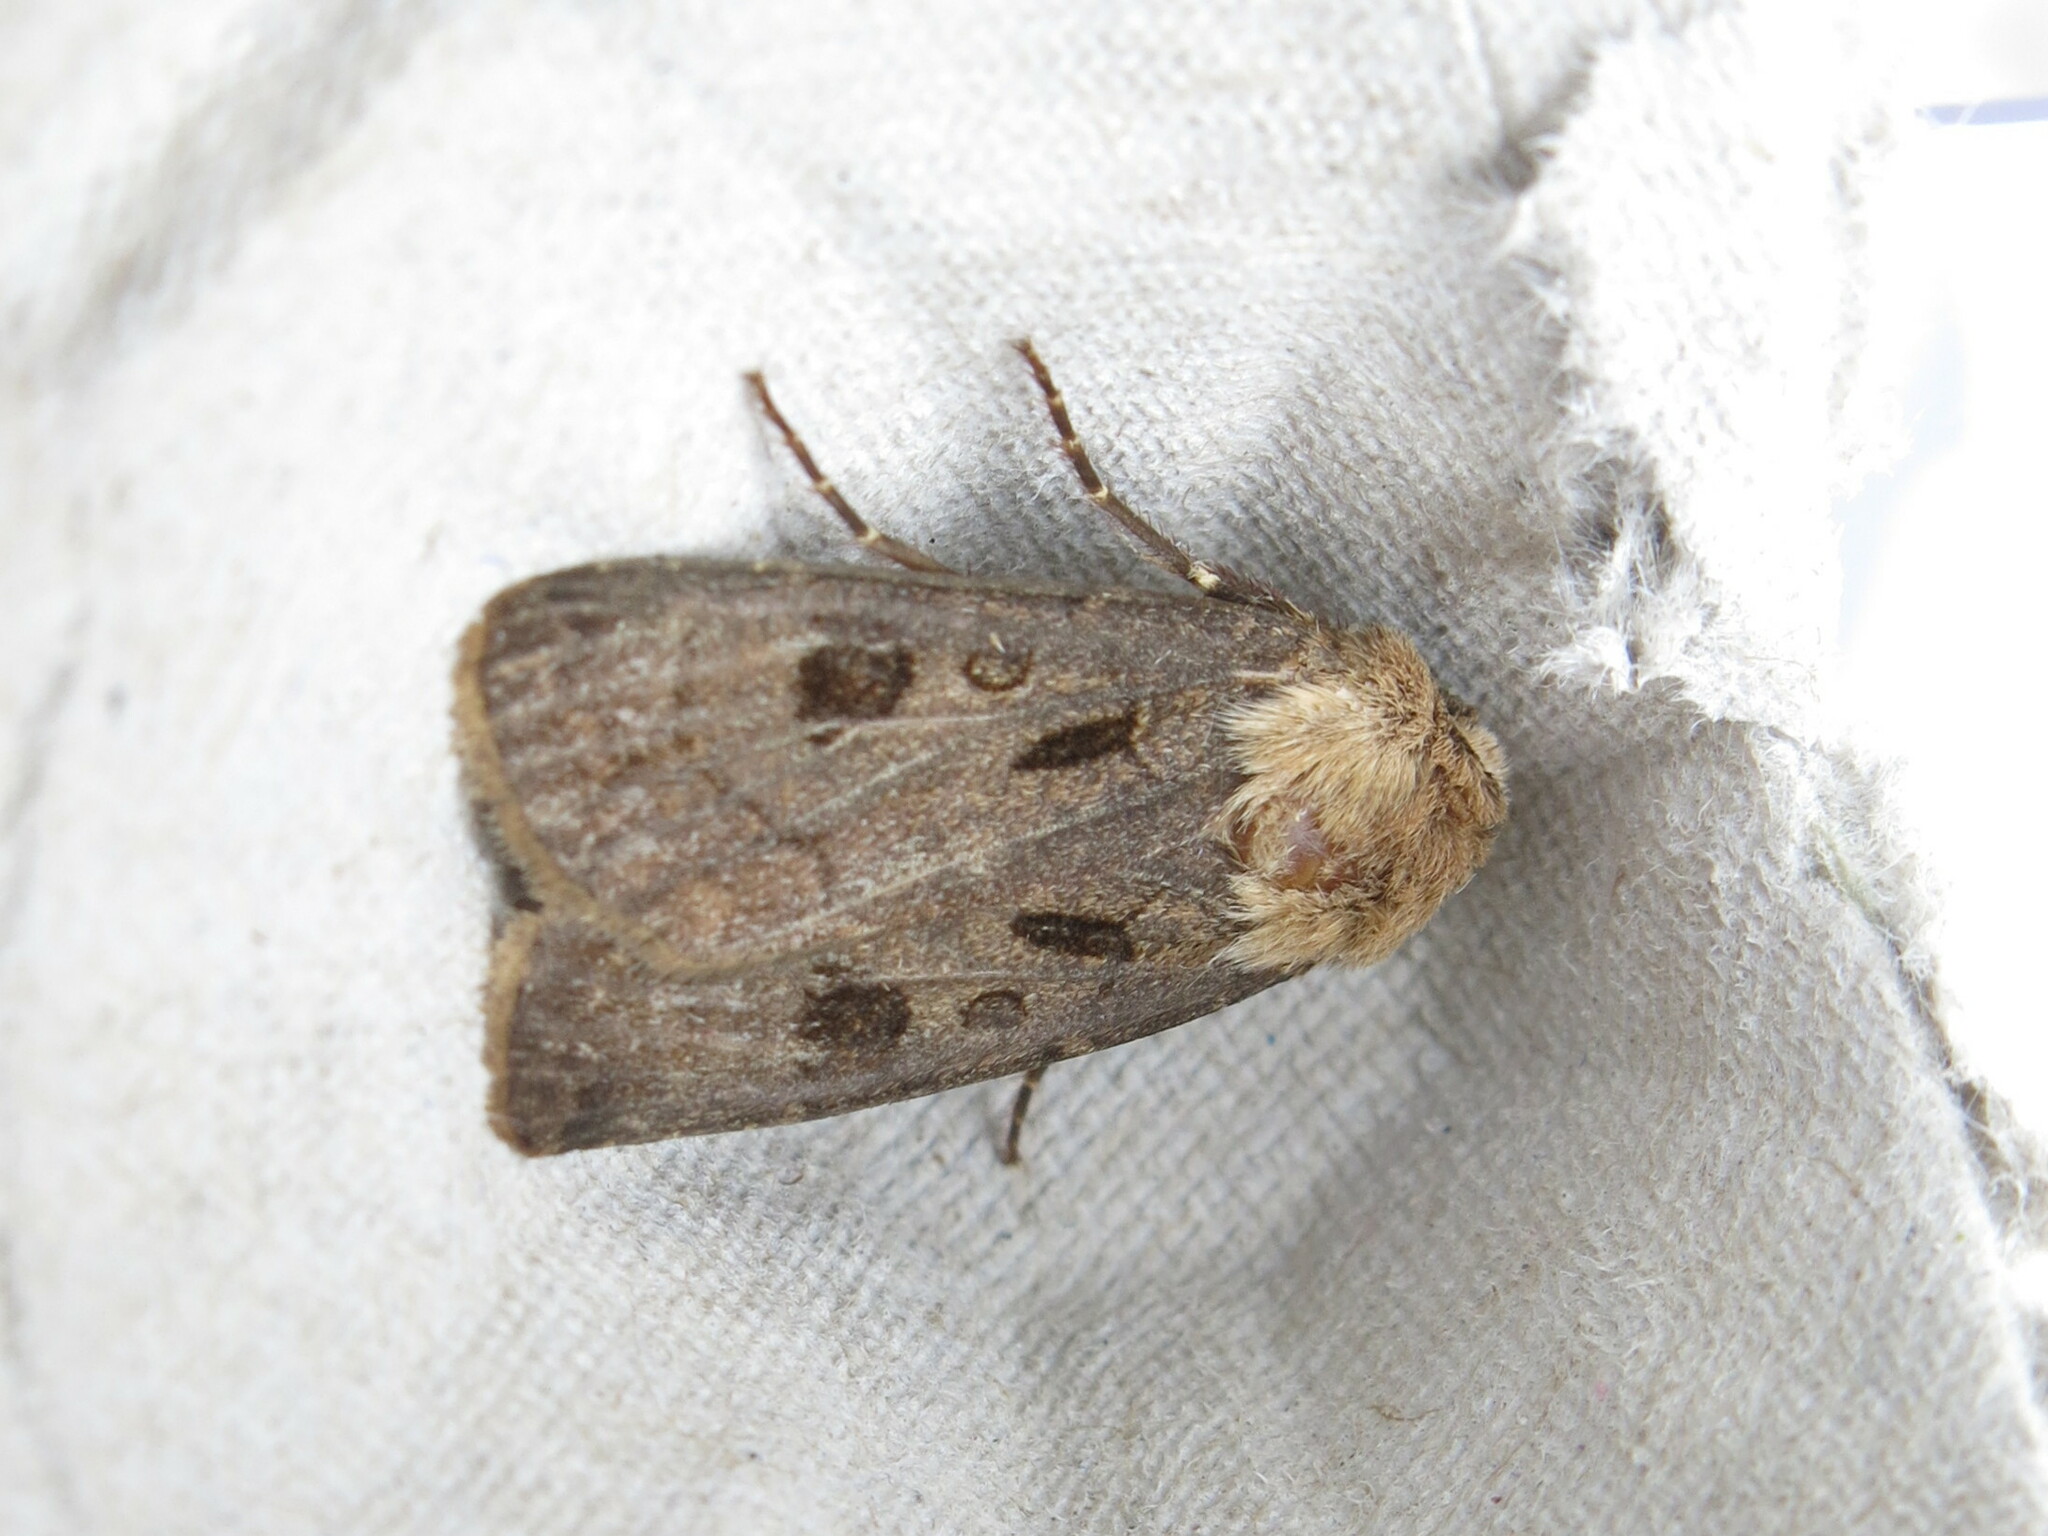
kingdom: Animalia
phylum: Arthropoda
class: Insecta
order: Lepidoptera
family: Noctuidae
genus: Agrotis
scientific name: Agrotis exclamationis
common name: Heart and dart
